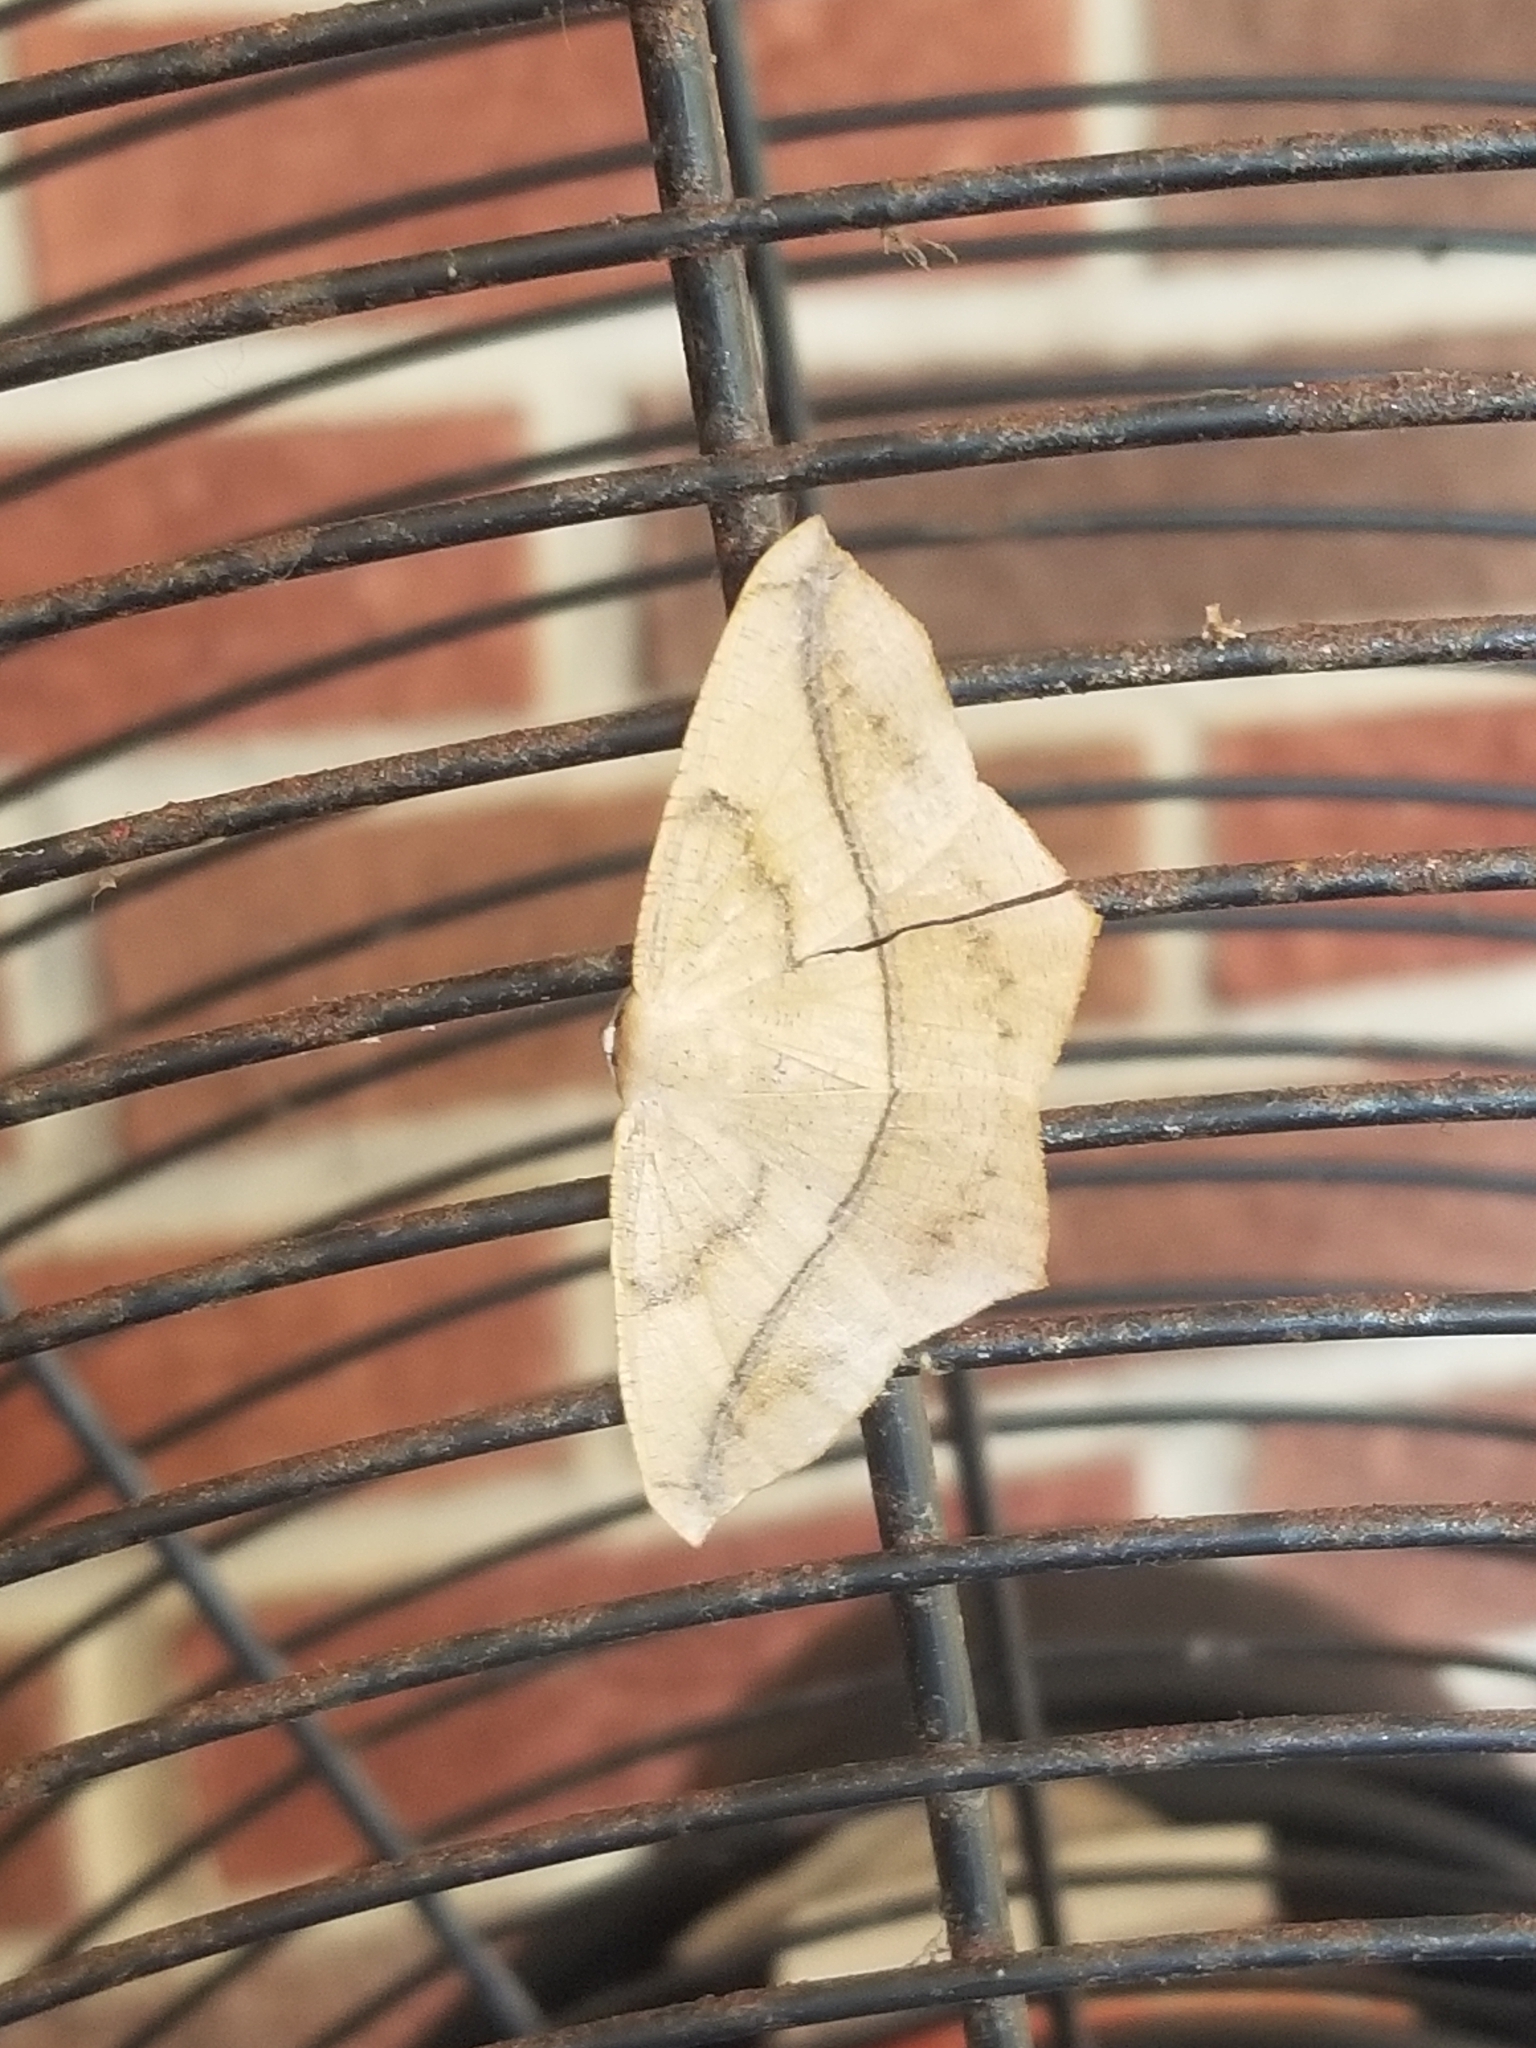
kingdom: Animalia
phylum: Arthropoda
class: Insecta
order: Lepidoptera
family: Geometridae
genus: Prochoerodes
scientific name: Prochoerodes lineola
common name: Large maple spanworm
